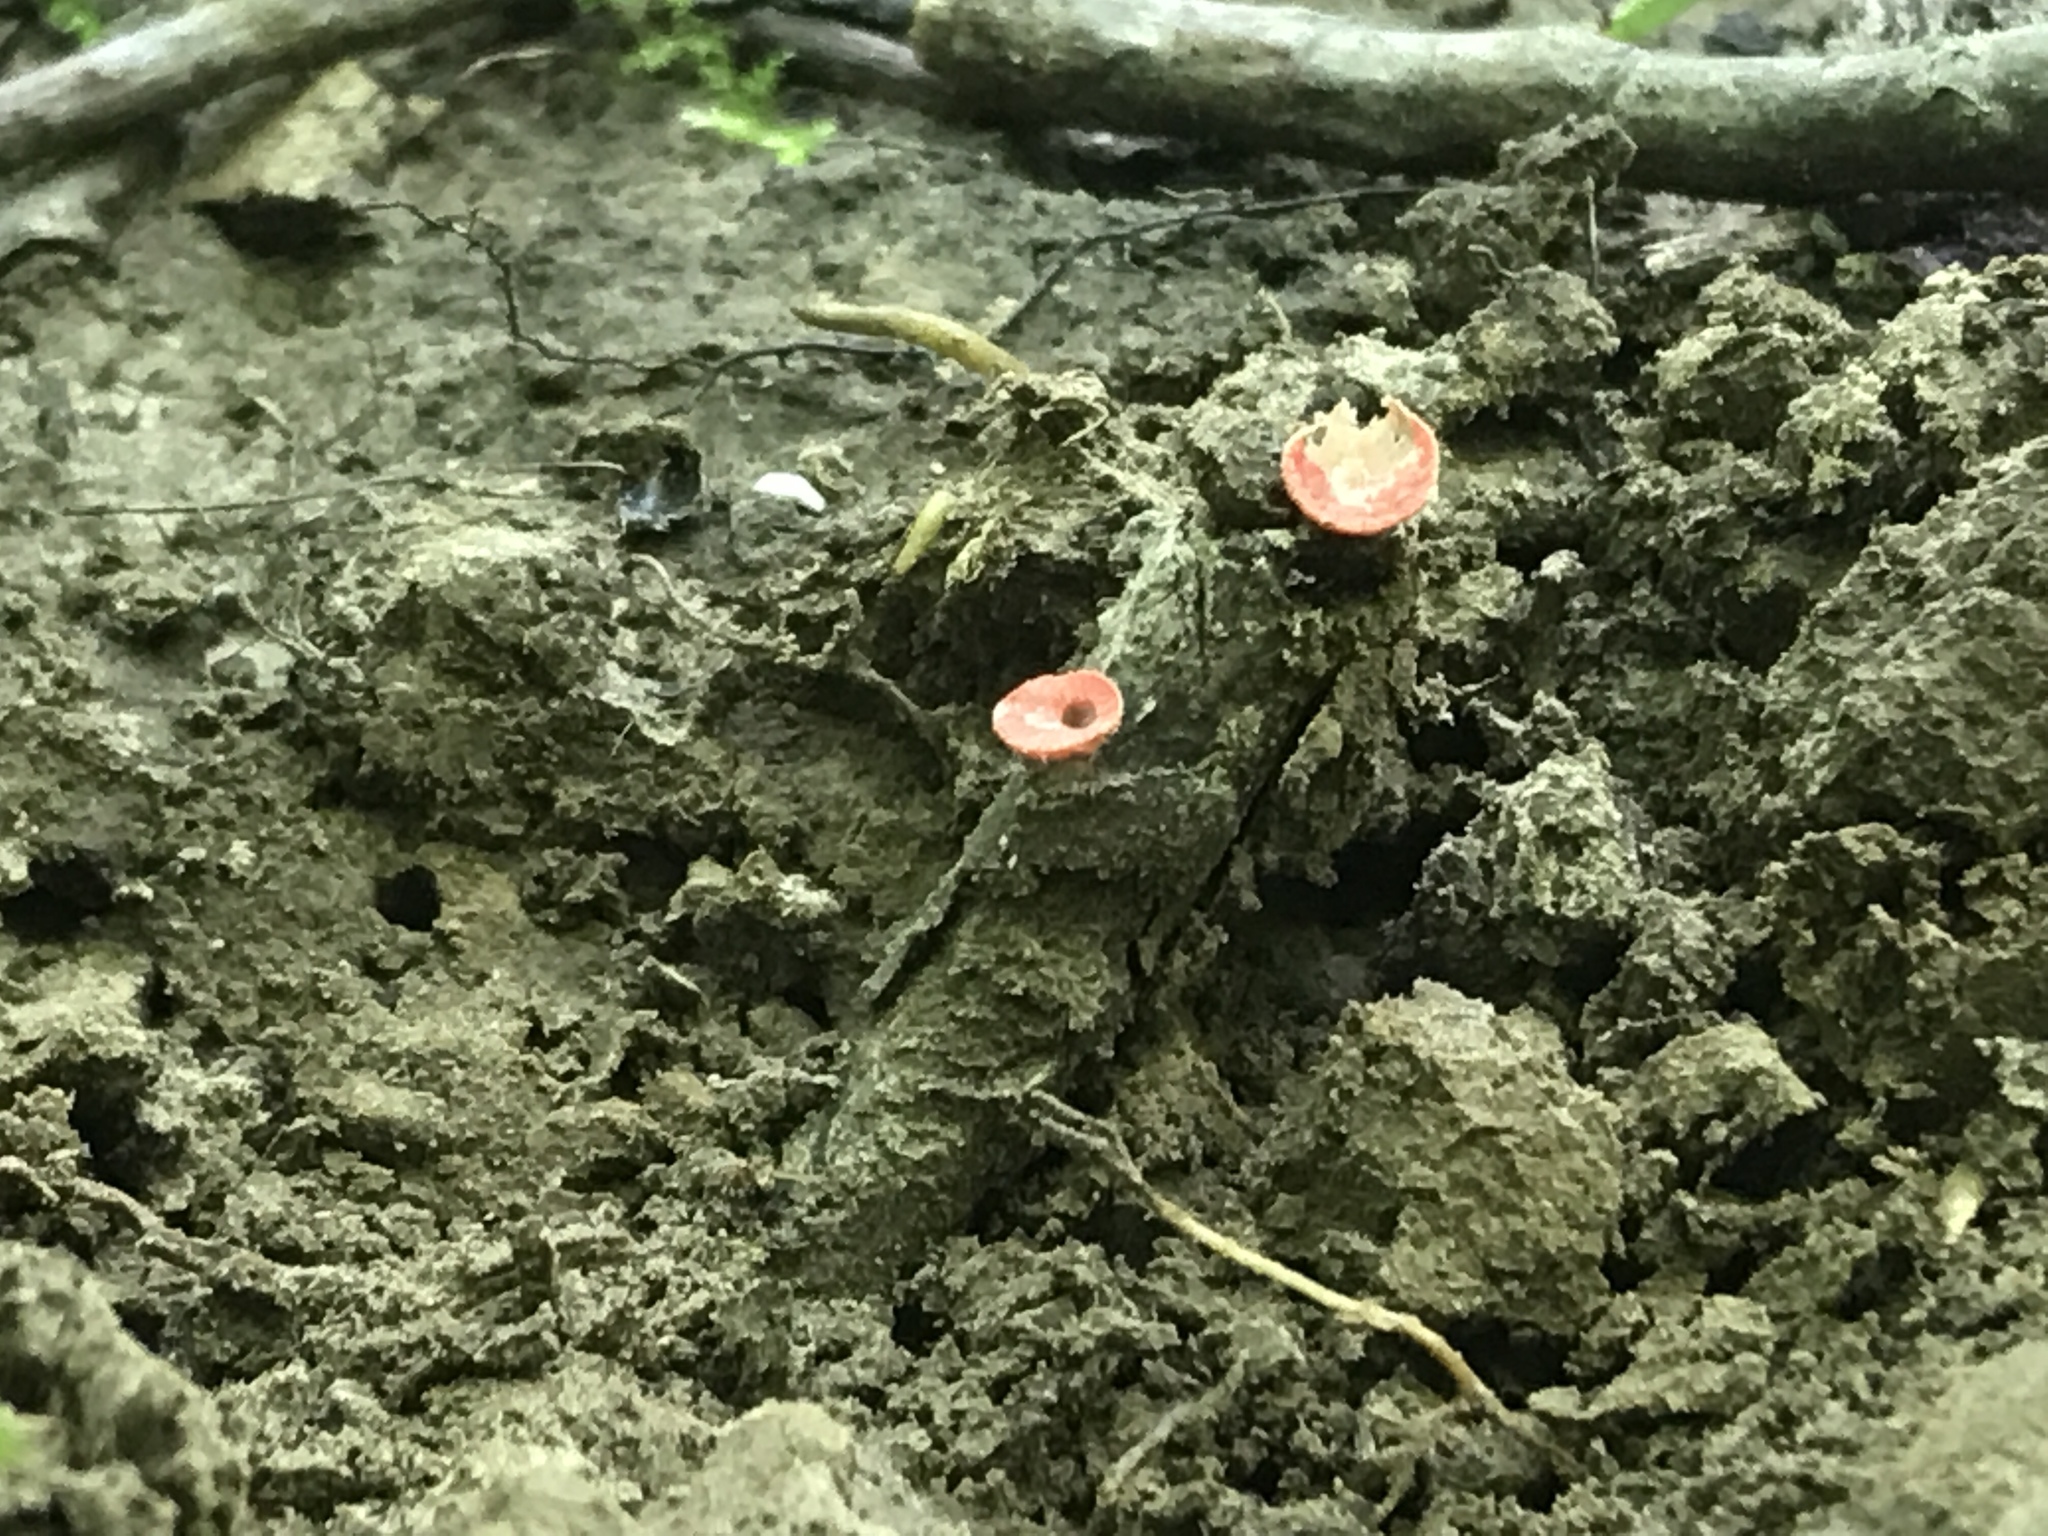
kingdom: Fungi
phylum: Ascomycota
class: Pezizomycetes
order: Pezizales
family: Sarcoscyphaceae
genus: Sarcoscypha
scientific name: Sarcoscypha occidentalis
